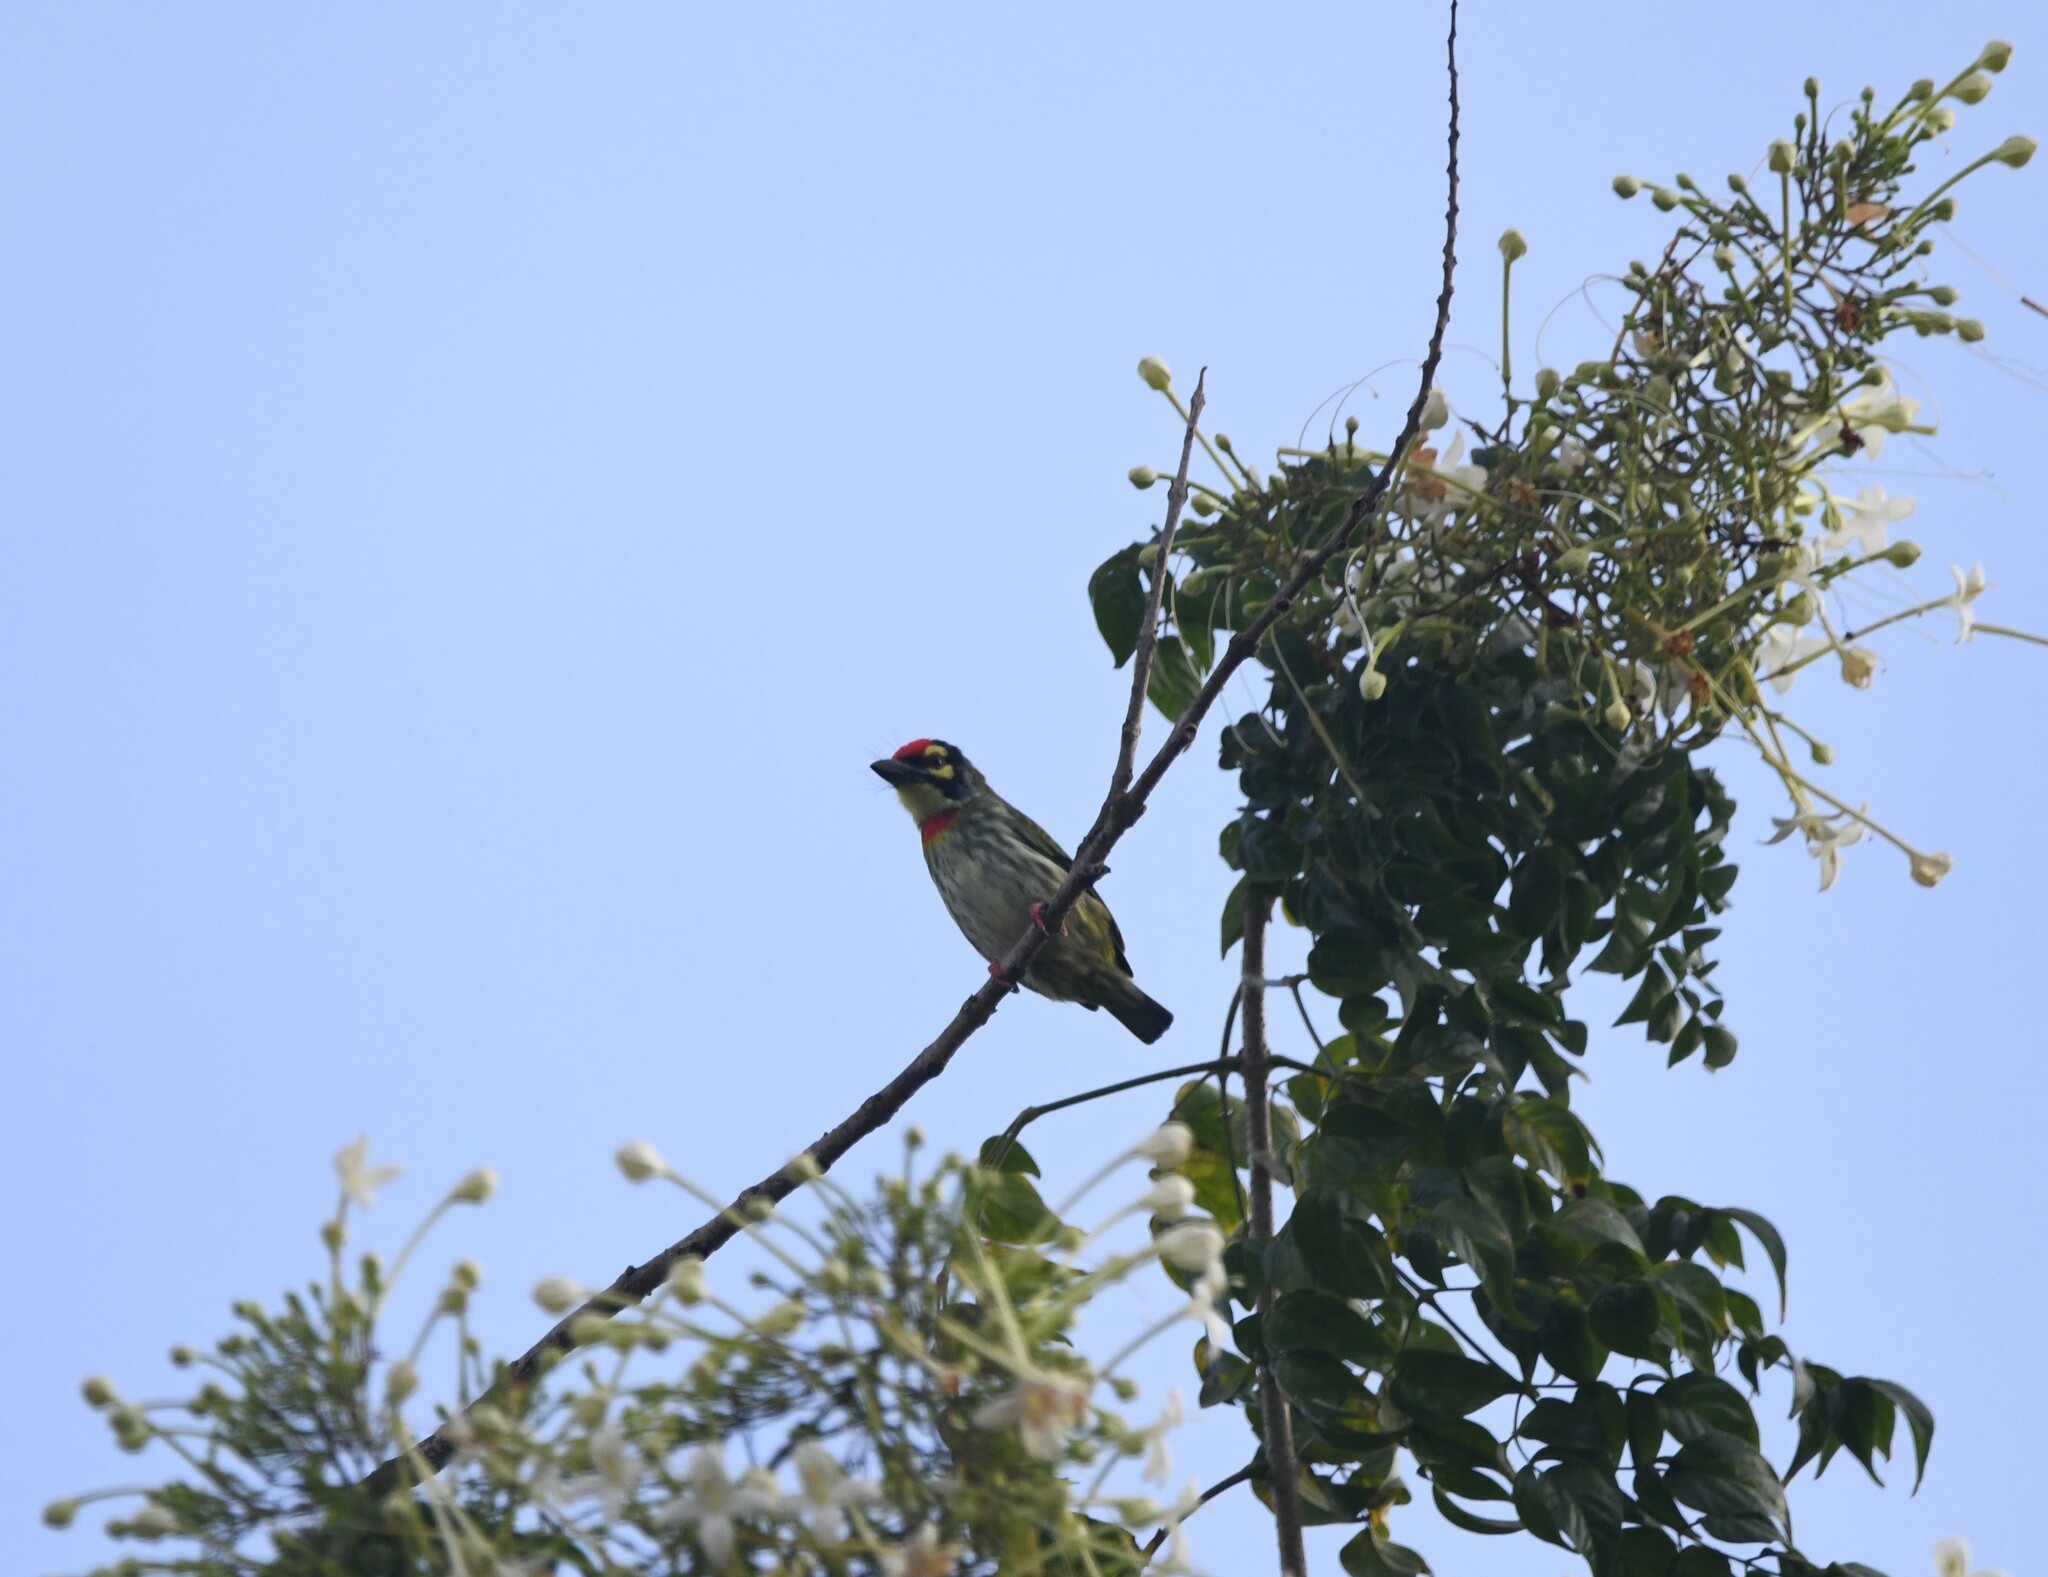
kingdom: Animalia
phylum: Chordata
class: Aves
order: Piciformes
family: Megalaimidae
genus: Psilopogon
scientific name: Psilopogon haemacephalus
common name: Coppersmith barbet
